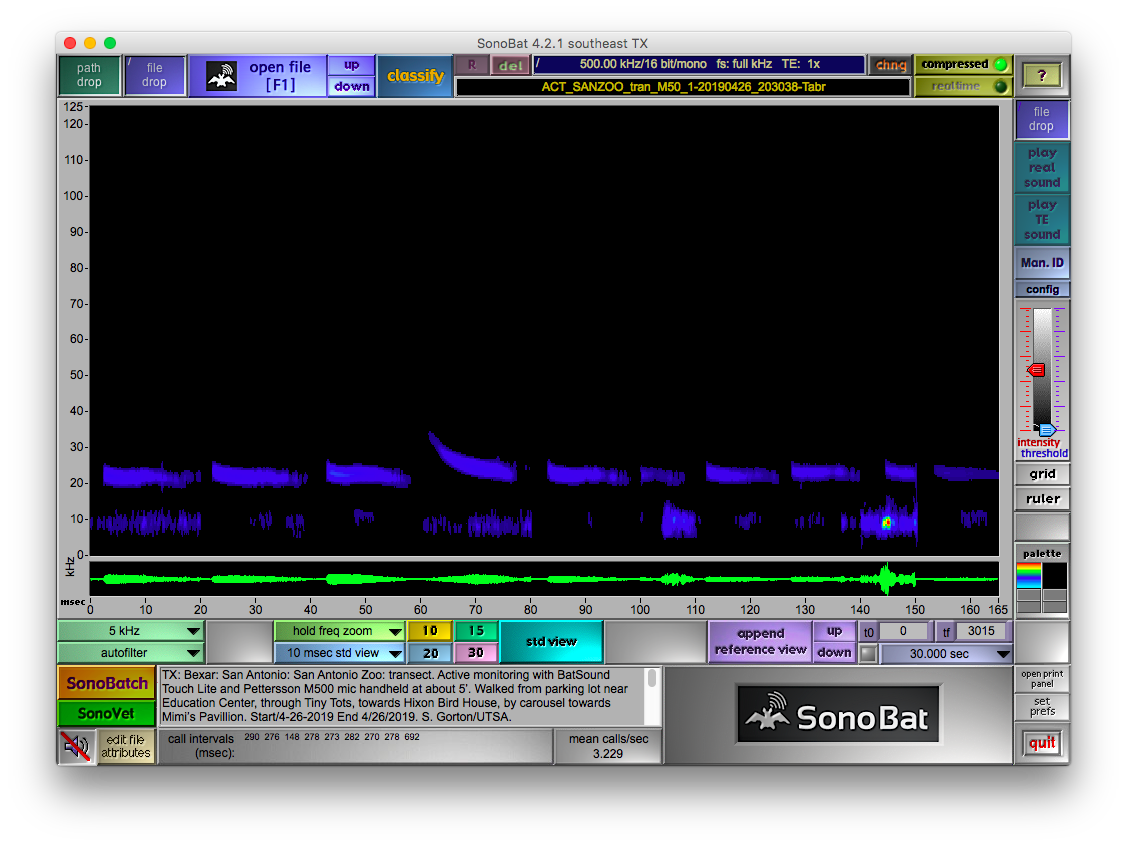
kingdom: Animalia
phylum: Chordata
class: Mammalia
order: Chiroptera
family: Molossidae
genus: Tadarida
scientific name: Tadarida brasiliensis
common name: Mexican free-tailed bat
